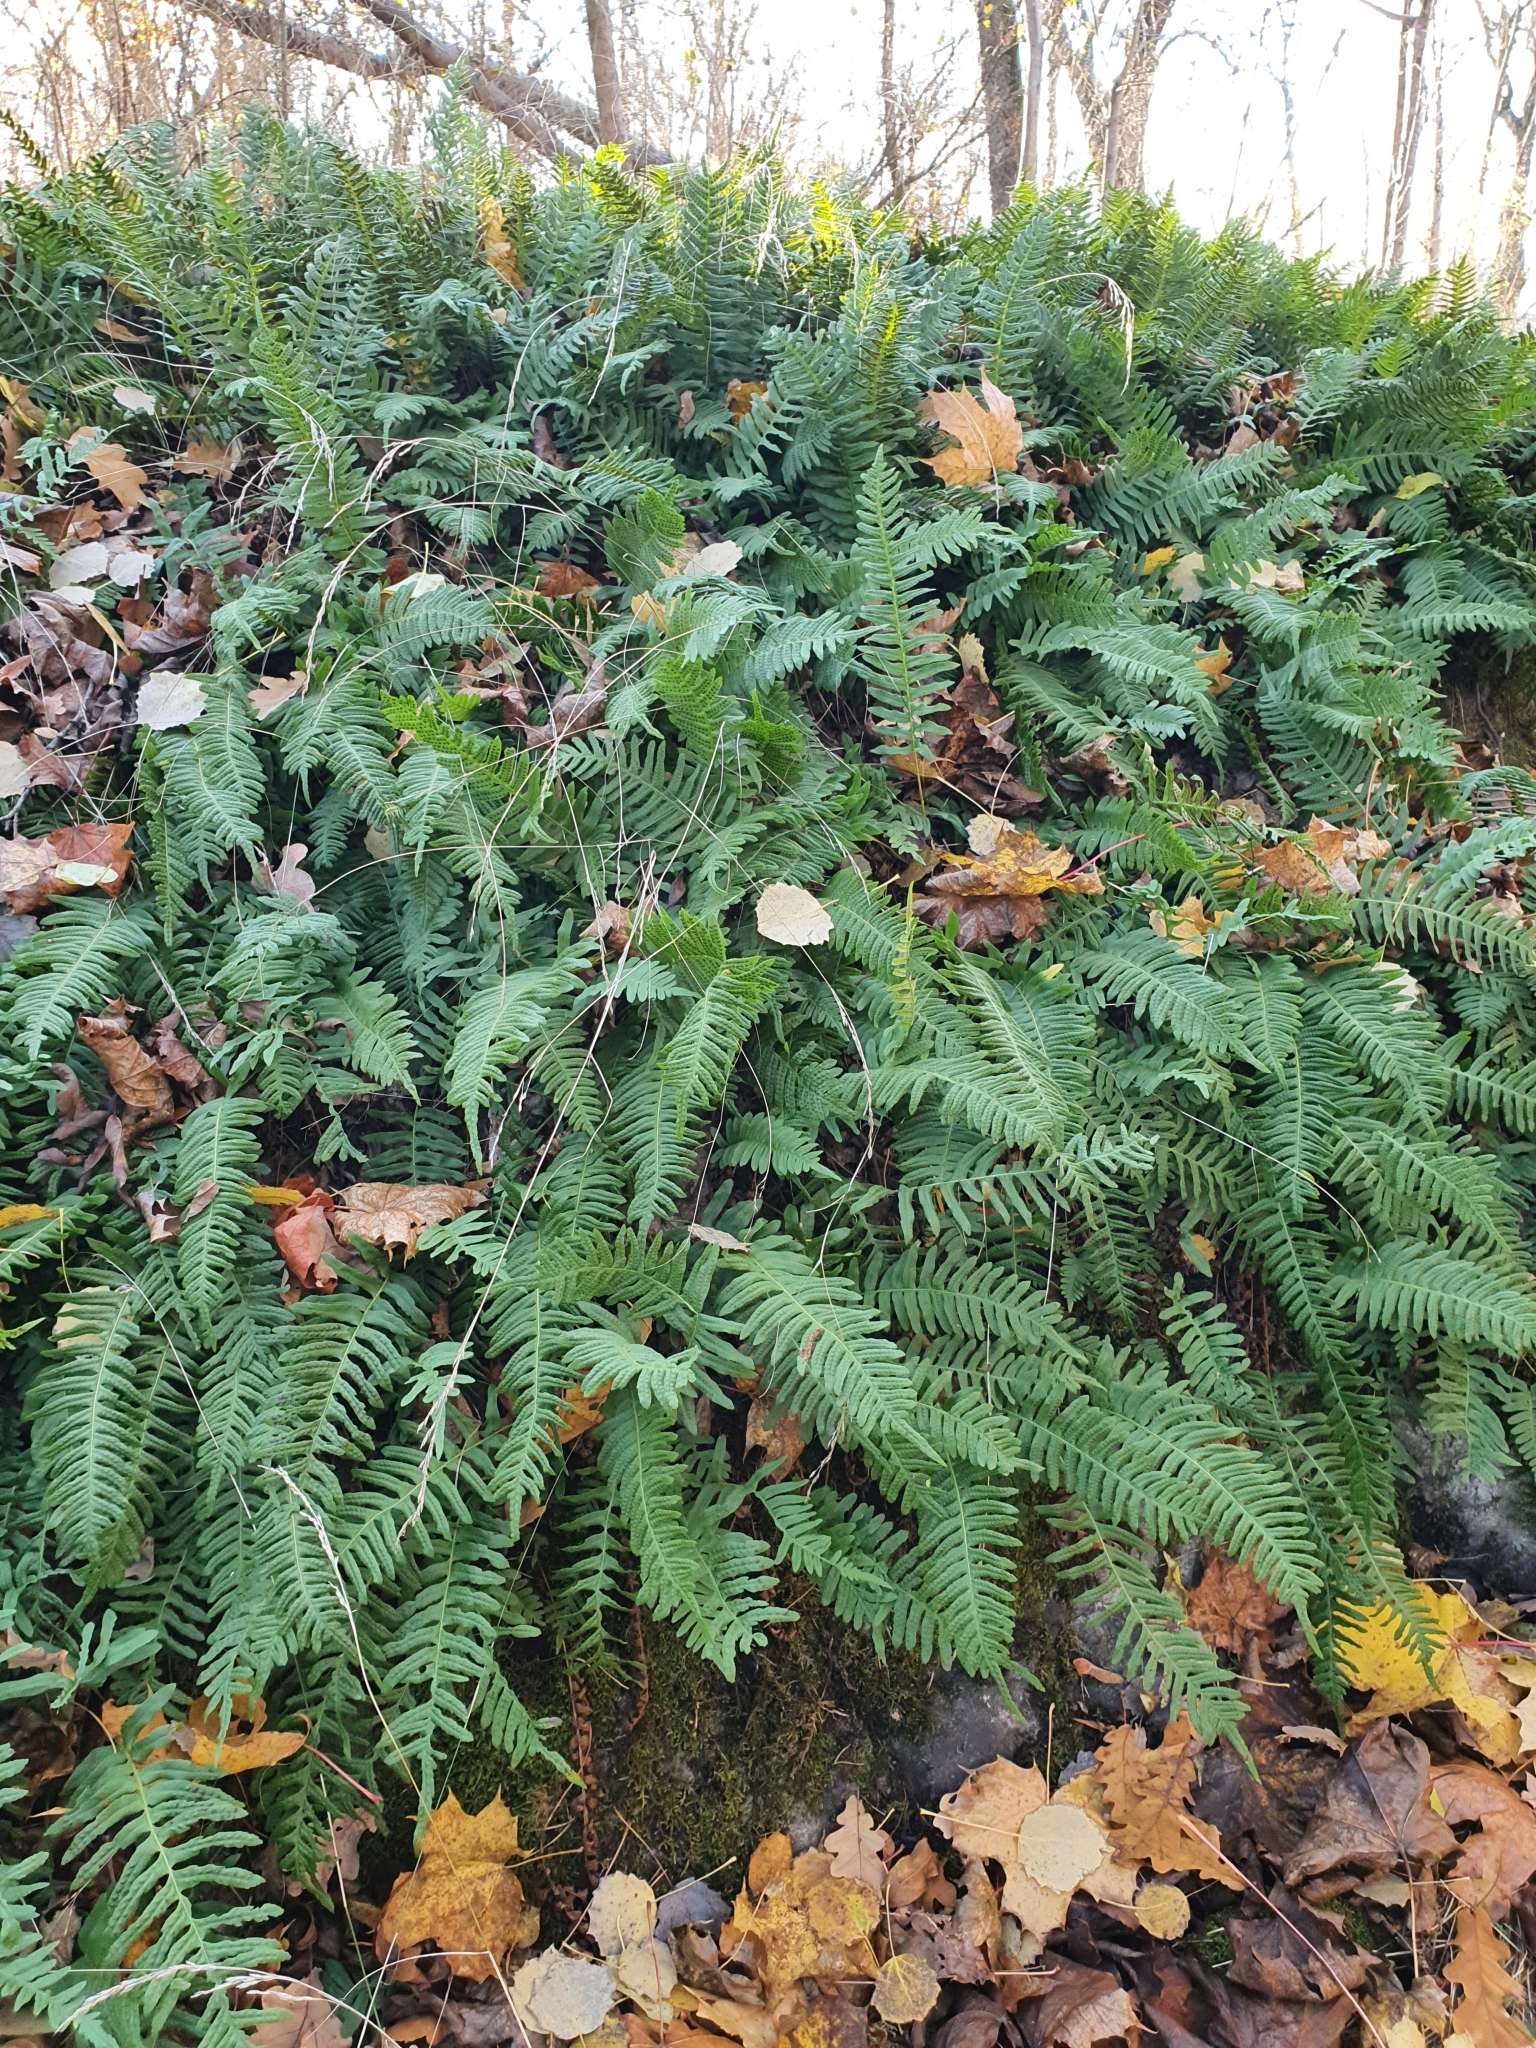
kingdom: Plantae
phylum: Tracheophyta
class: Polypodiopsida
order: Polypodiales
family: Polypodiaceae
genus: Polypodium
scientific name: Polypodium vulgare
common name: Common polypody
